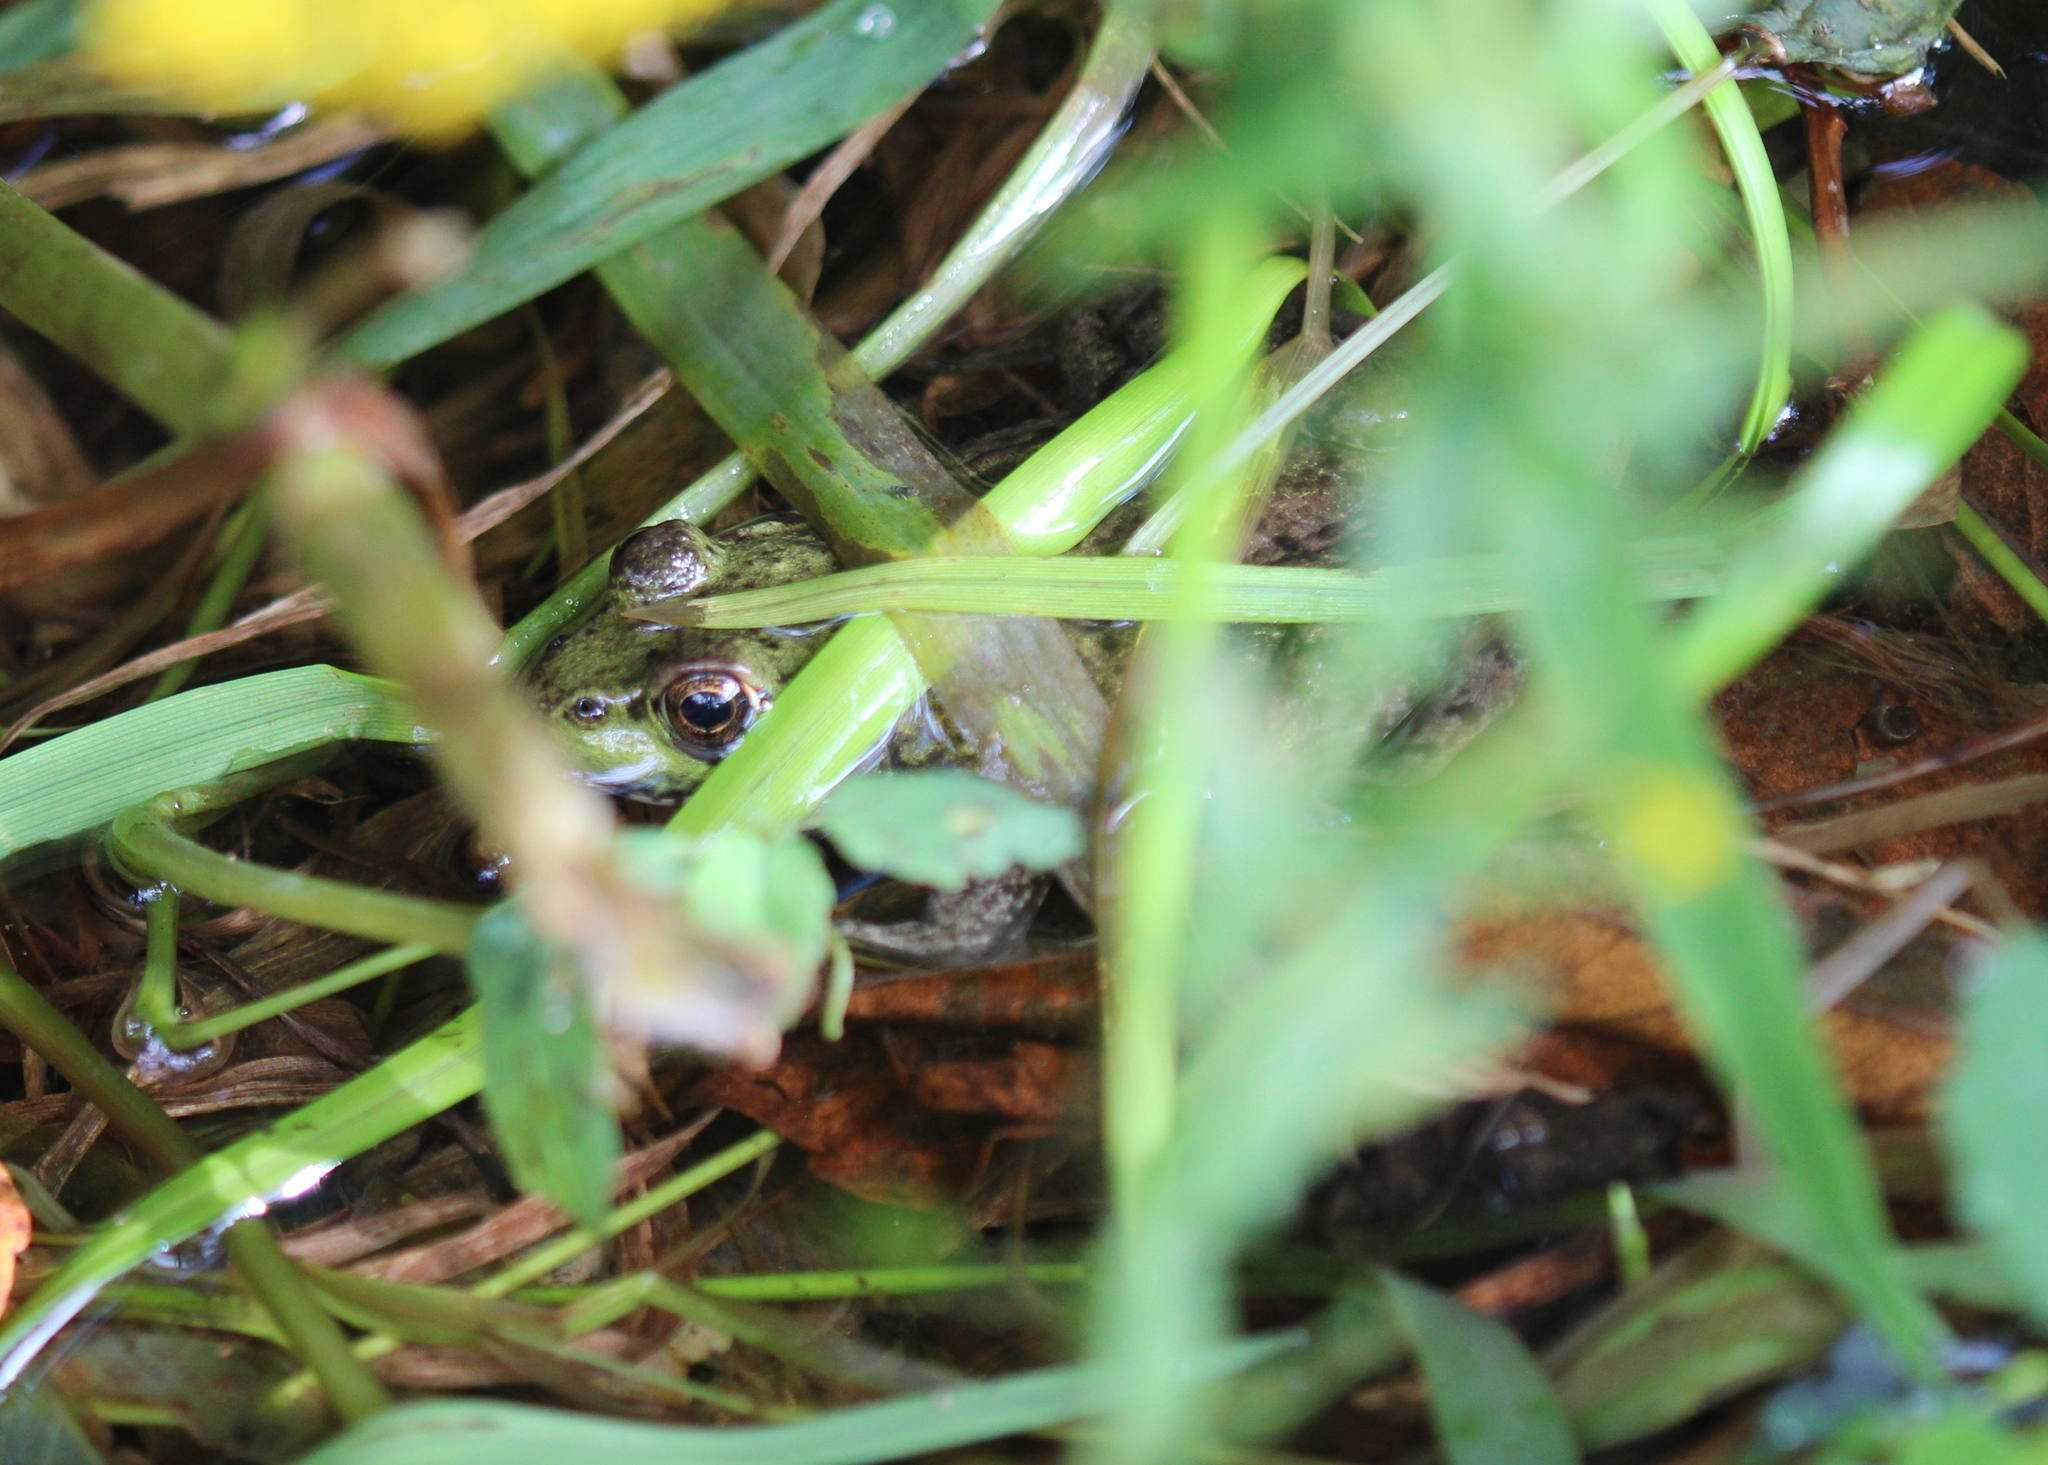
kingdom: Animalia
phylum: Chordata
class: Amphibia
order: Anura
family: Ranidae
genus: Lithobates
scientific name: Lithobates clamitans
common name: Green frog
